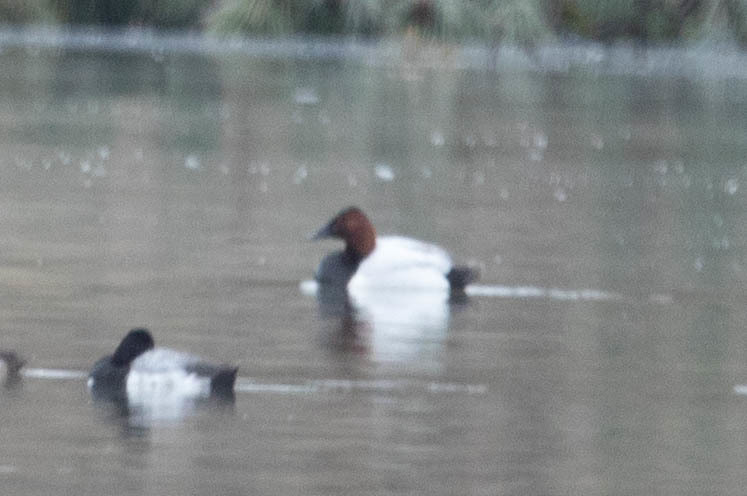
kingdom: Animalia
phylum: Chordata
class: Aves
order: Anseriformes
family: Anatidae
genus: Aythya
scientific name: Aythya valisineria
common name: Canvasback
